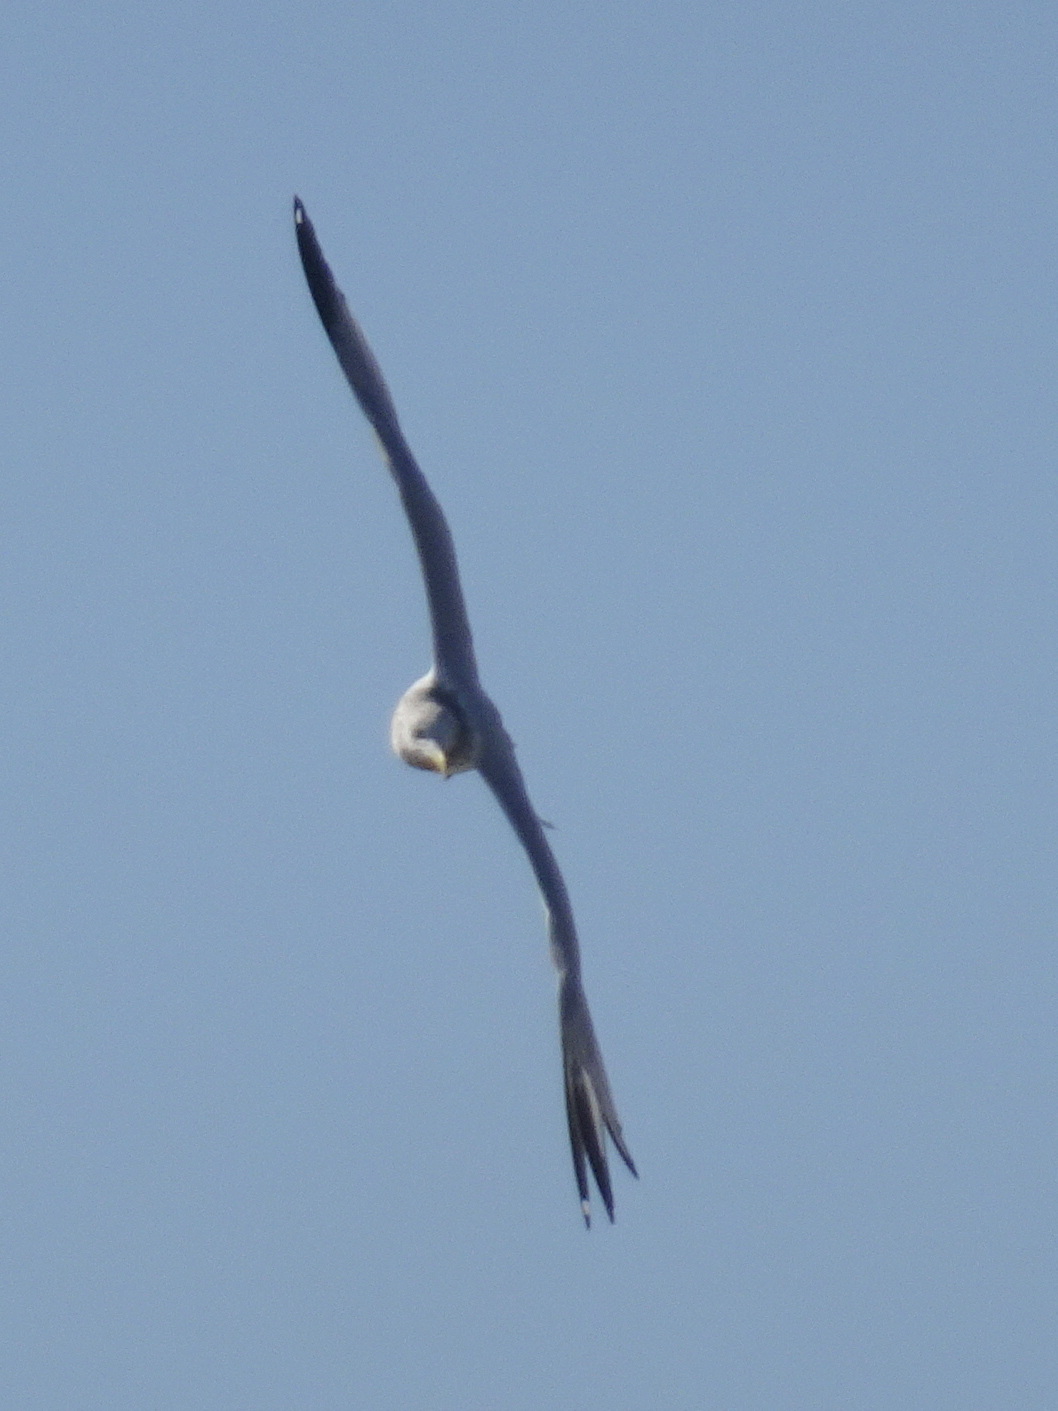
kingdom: Animalia
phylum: Chordata
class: Aves
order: Charadriiformes
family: Laridae
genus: Larus
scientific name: Larus argentatus
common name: Herring gull
